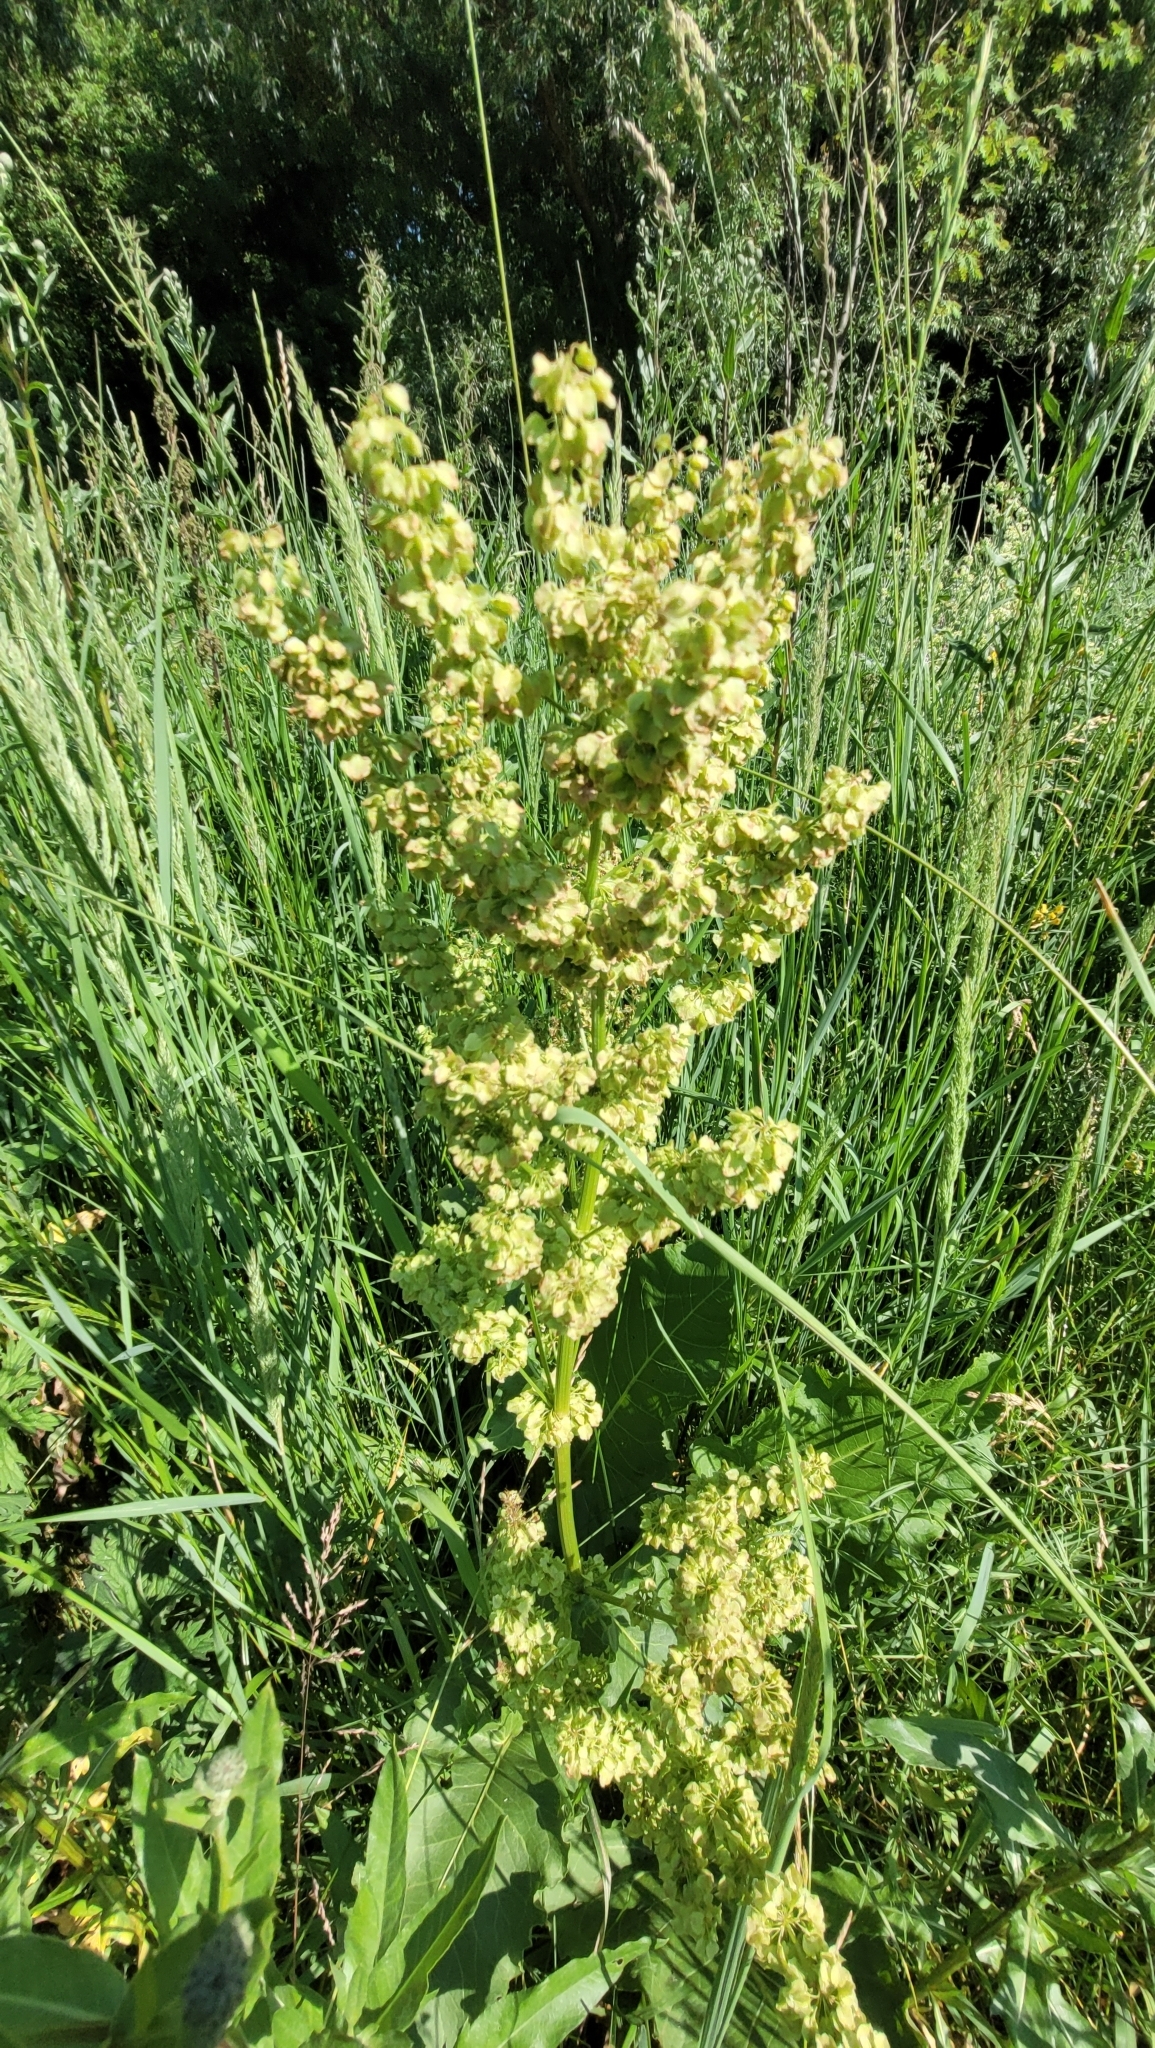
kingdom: Plantae
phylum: Tracheophyta
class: Magnoliopsida
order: Caryophyllales
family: Polygonaceae
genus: Rumex
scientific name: Rumex confertus
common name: Russian dock
